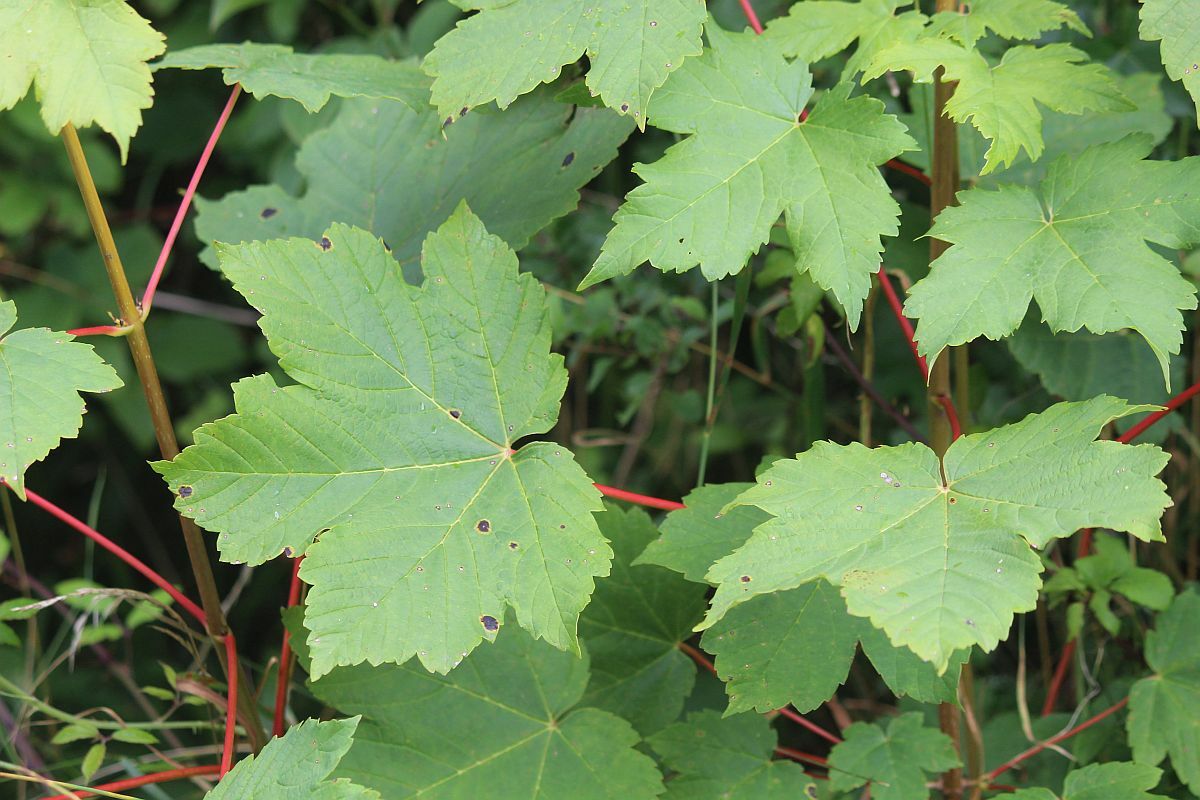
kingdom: Plantae
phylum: Tracheophyta
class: Magnoliopsida
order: Sapindales
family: Sapindaceae
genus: Acer
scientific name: Acer pseudoplatanus
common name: Sycamore
